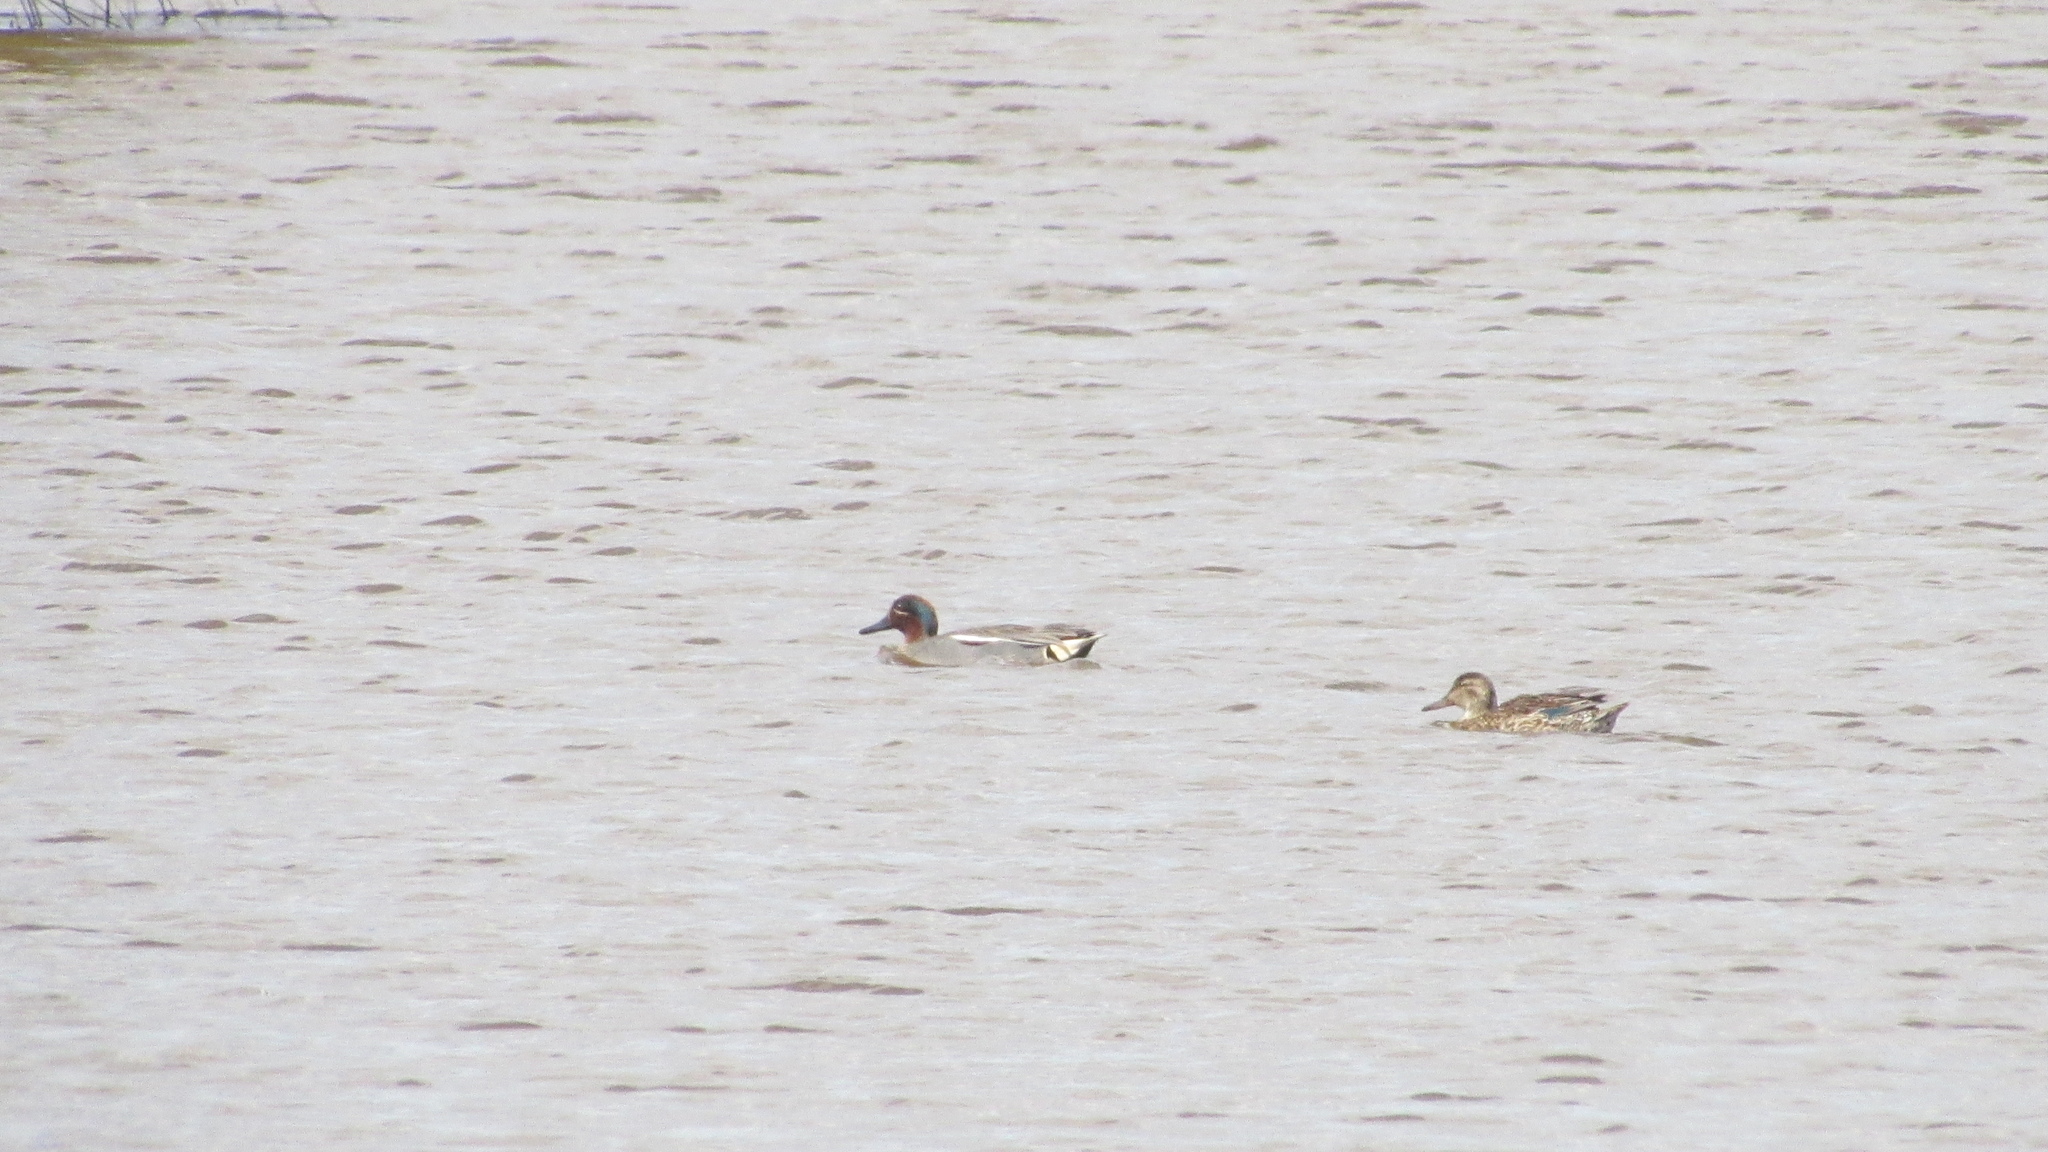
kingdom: Animalia
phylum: Chordata
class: Aves
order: Anseriformes
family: Anatidae
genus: Anas
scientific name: Anas crecca
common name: Eurasian teal
